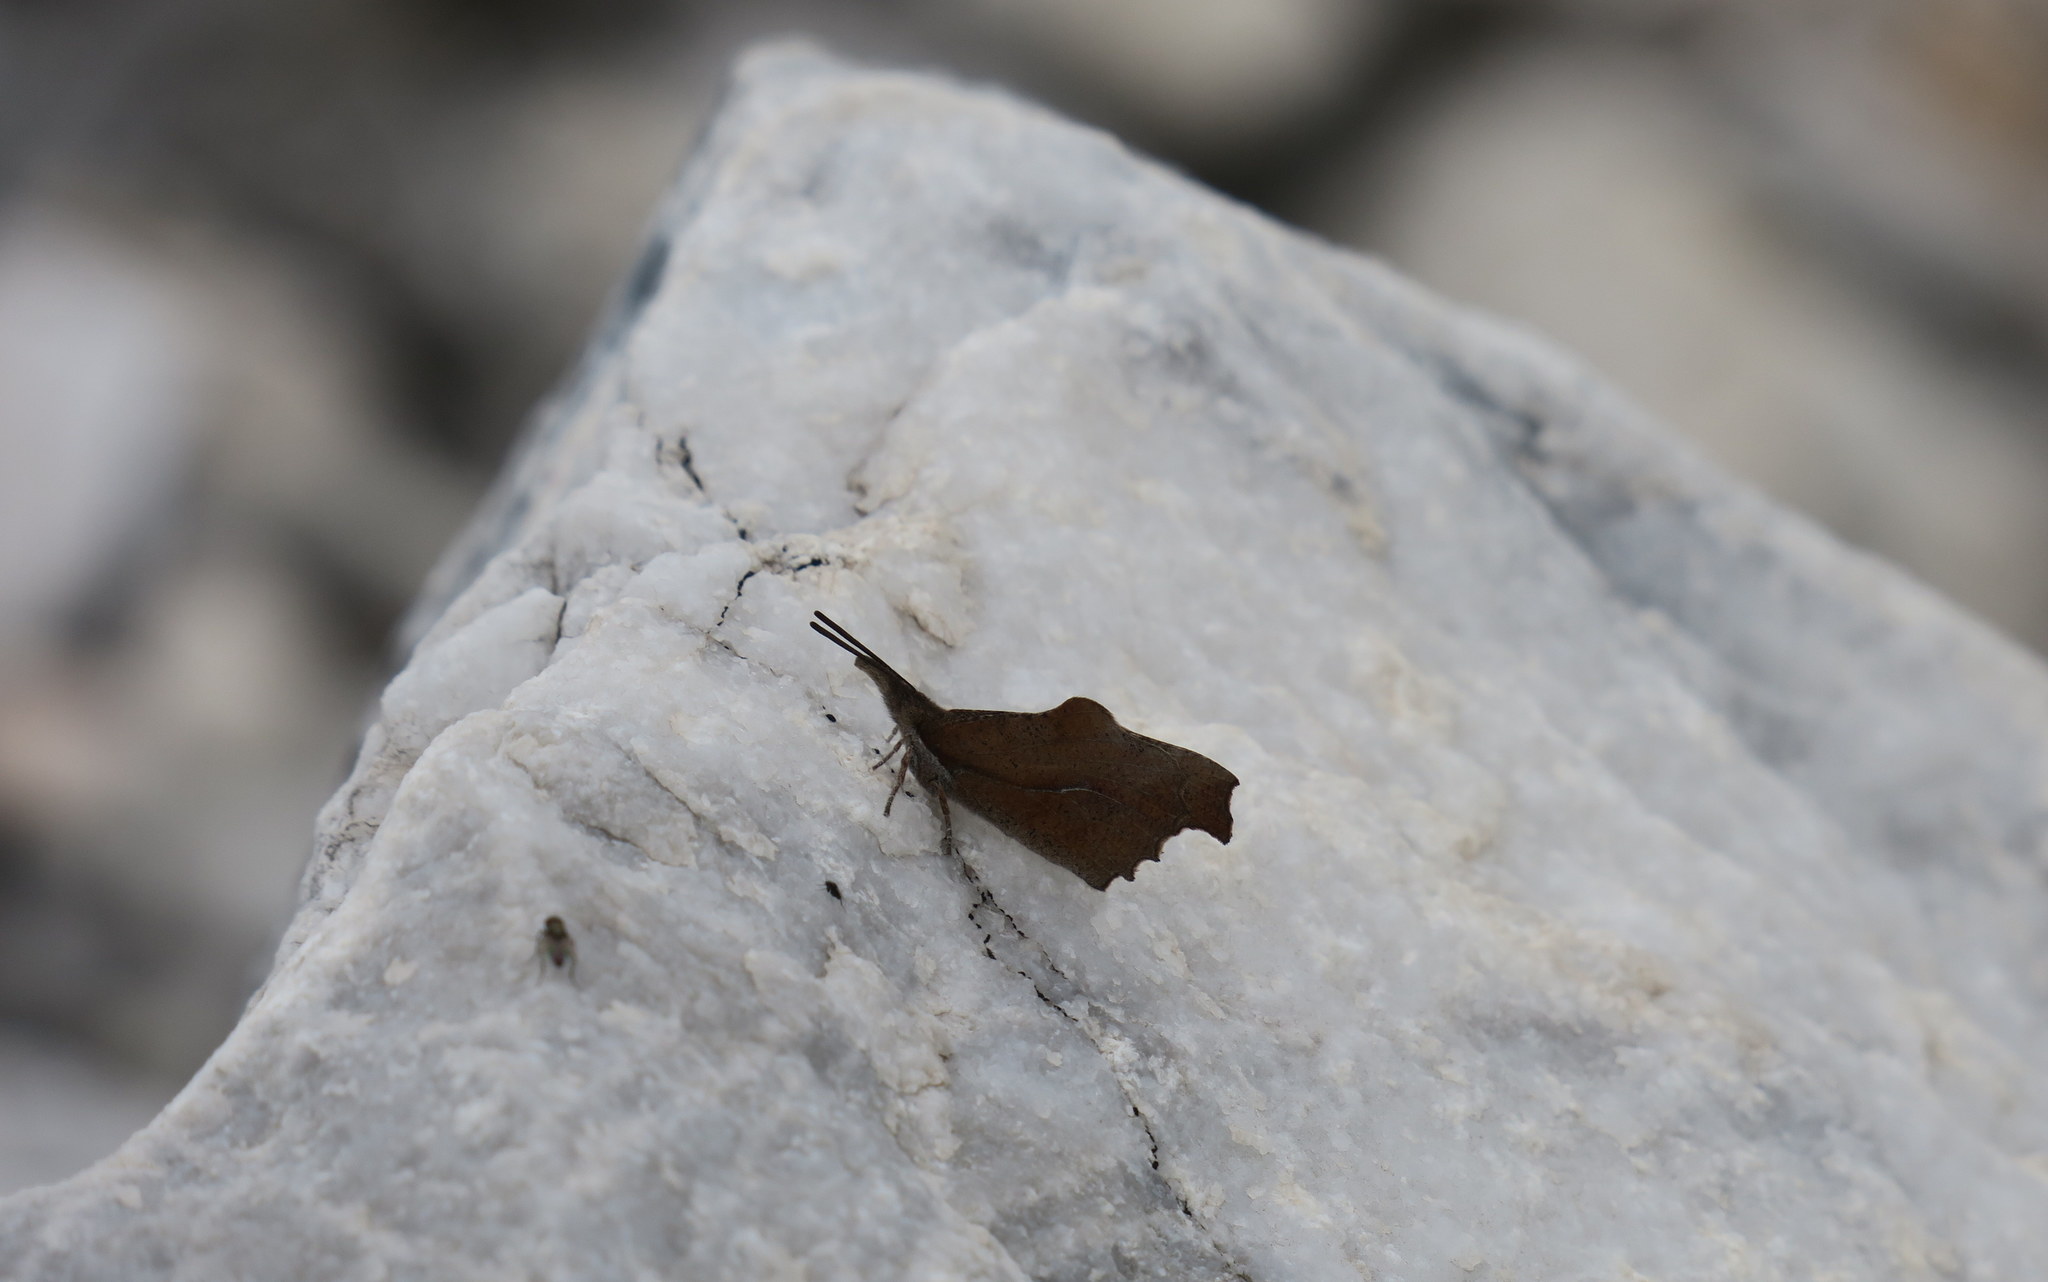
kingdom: Animalia
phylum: Arthropoda
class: Insecta
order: Lepidoptera
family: Nymphalidae
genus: Libythea
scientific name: Libythea celtis
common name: Nettle-tree butterfly
